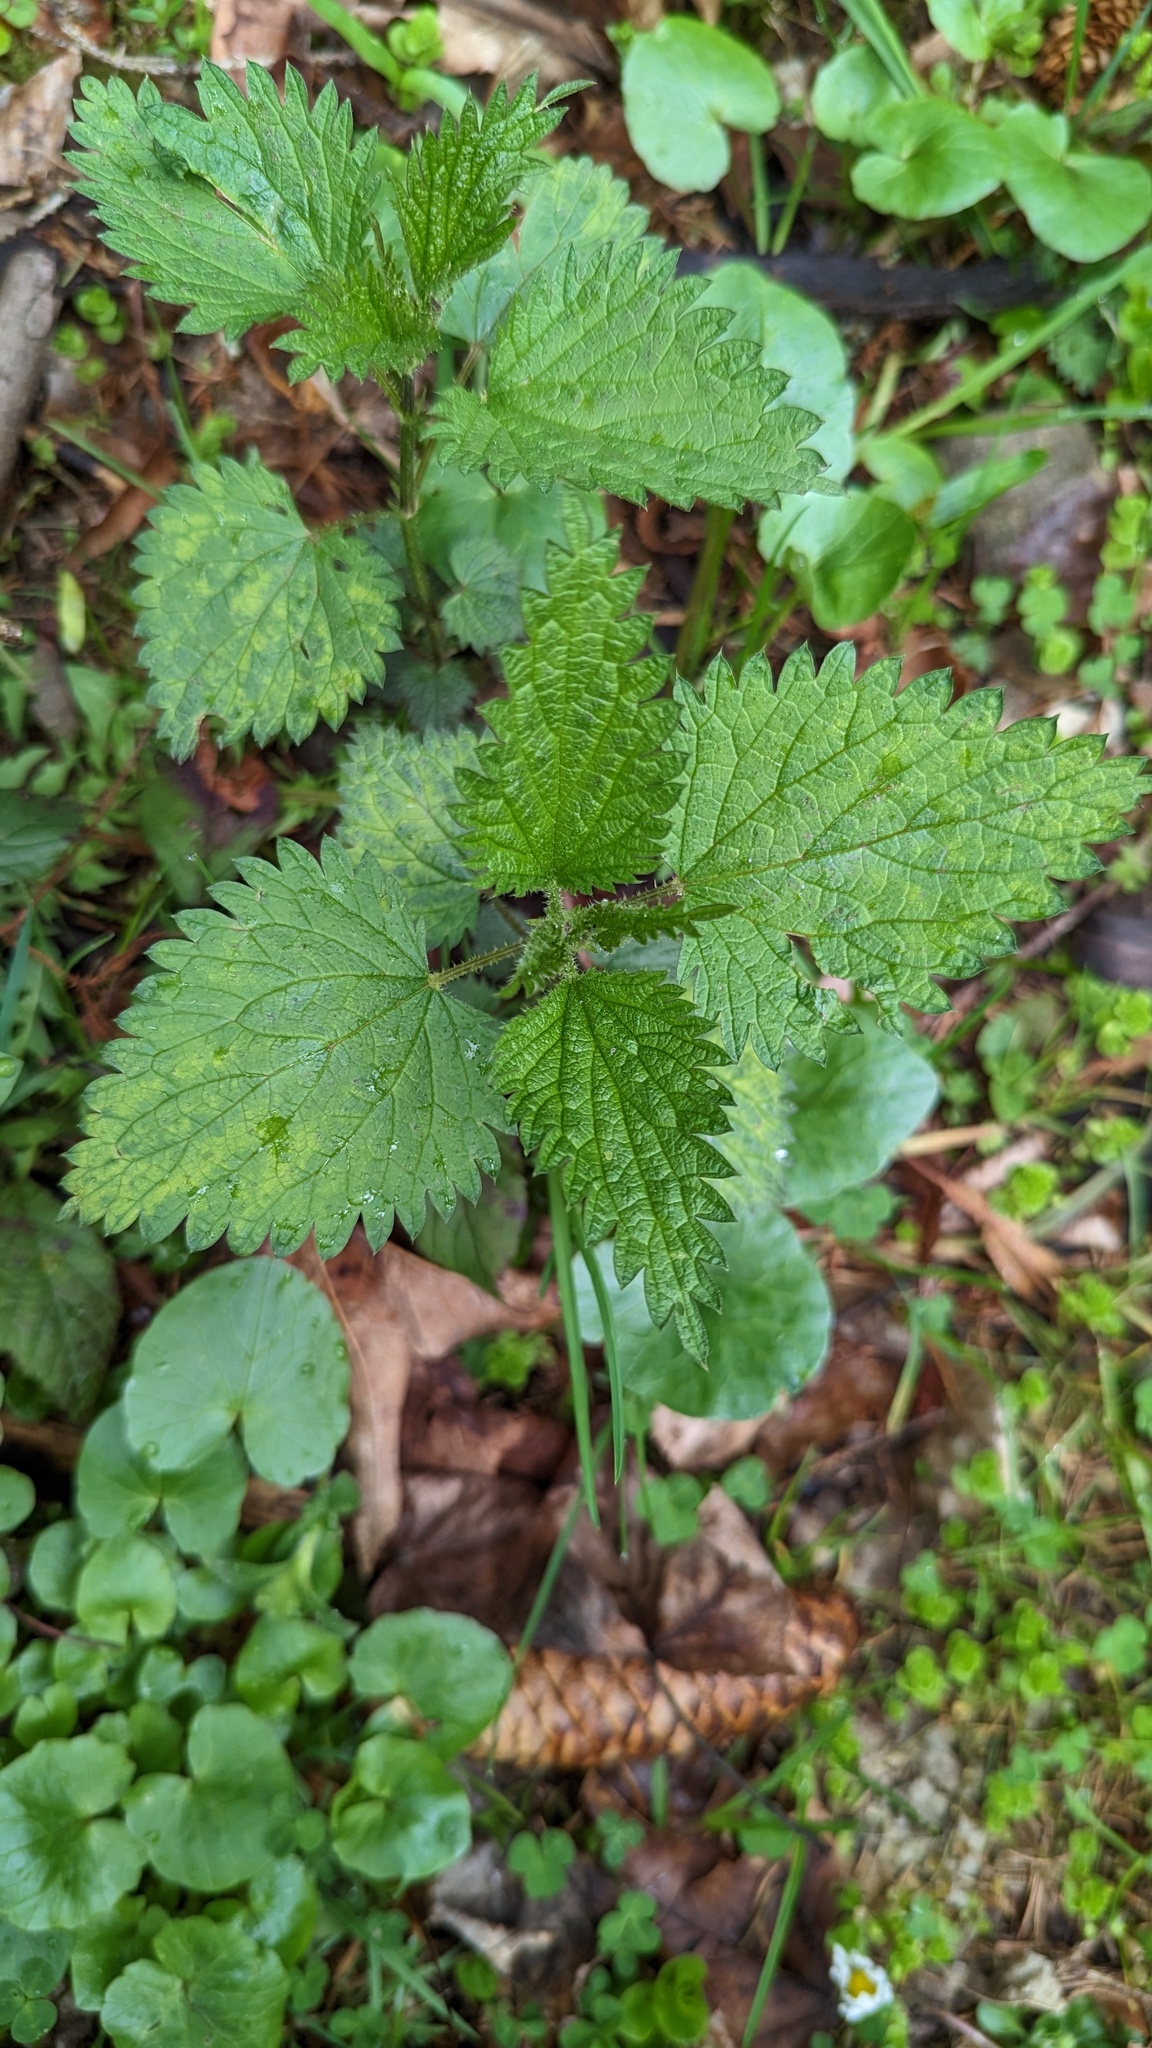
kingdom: Plantae
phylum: Tracheophyta
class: Magnoliopsida
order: Rosales
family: Urticaceae
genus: Urtica
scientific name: Urtica dioica
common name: Common nettle
